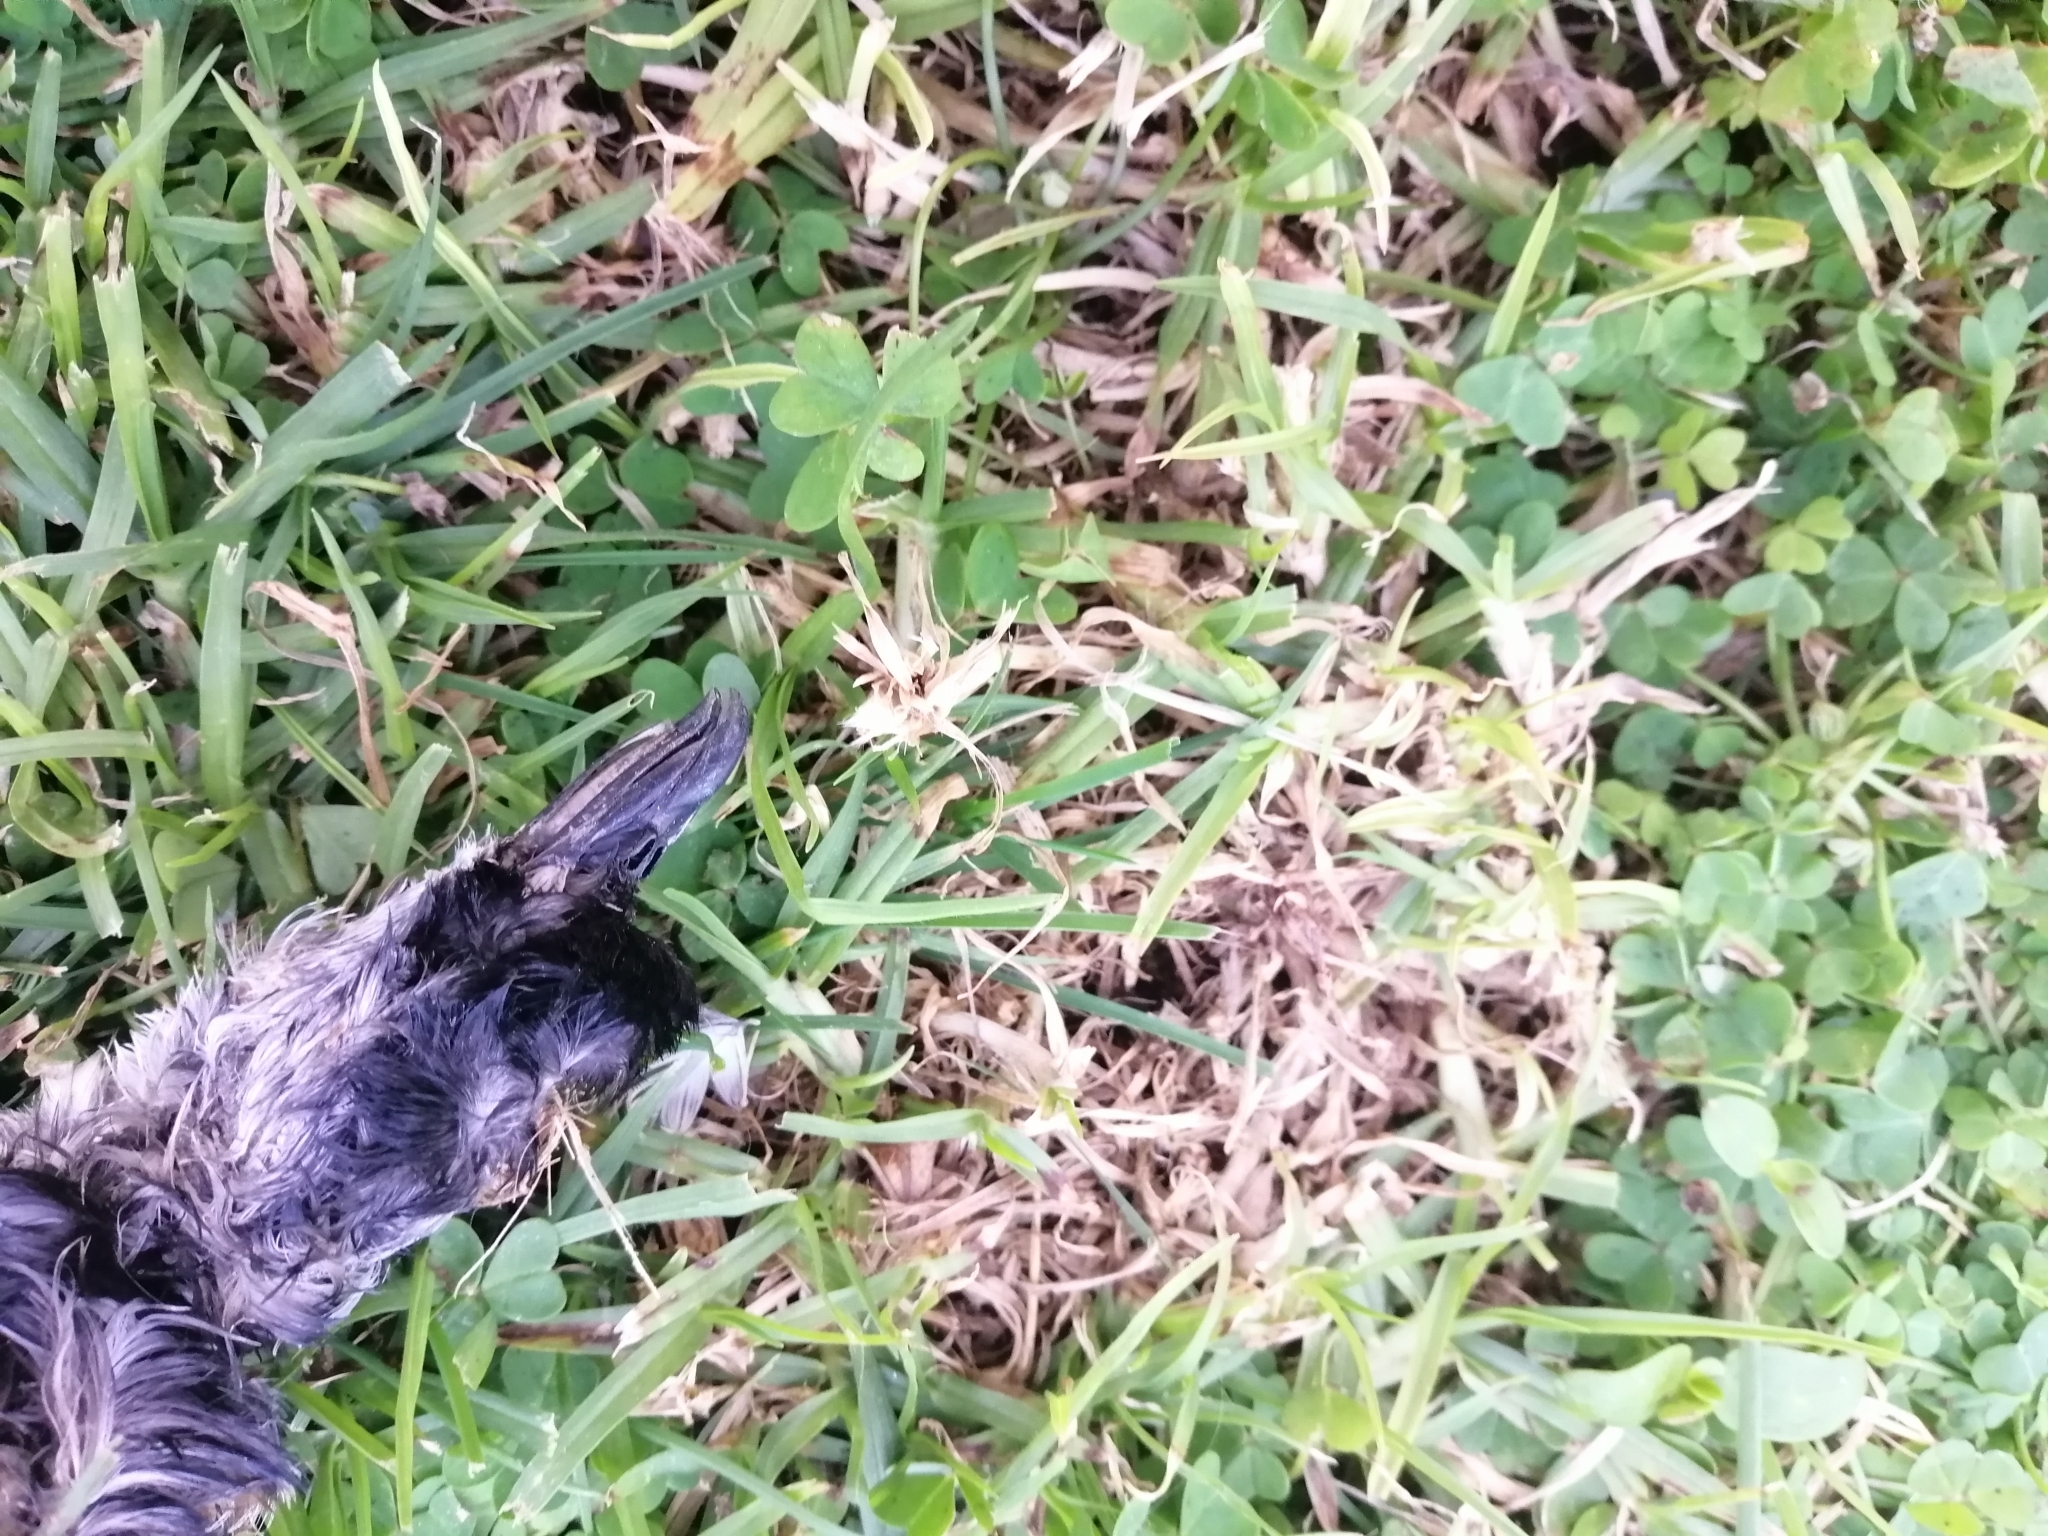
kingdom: Animalia
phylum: Chordata
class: Aves
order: Procellariiformes
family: Pelecanoididae
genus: Pelecanoides
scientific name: Pelecanoides urinatrix
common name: Common diving-petrel
